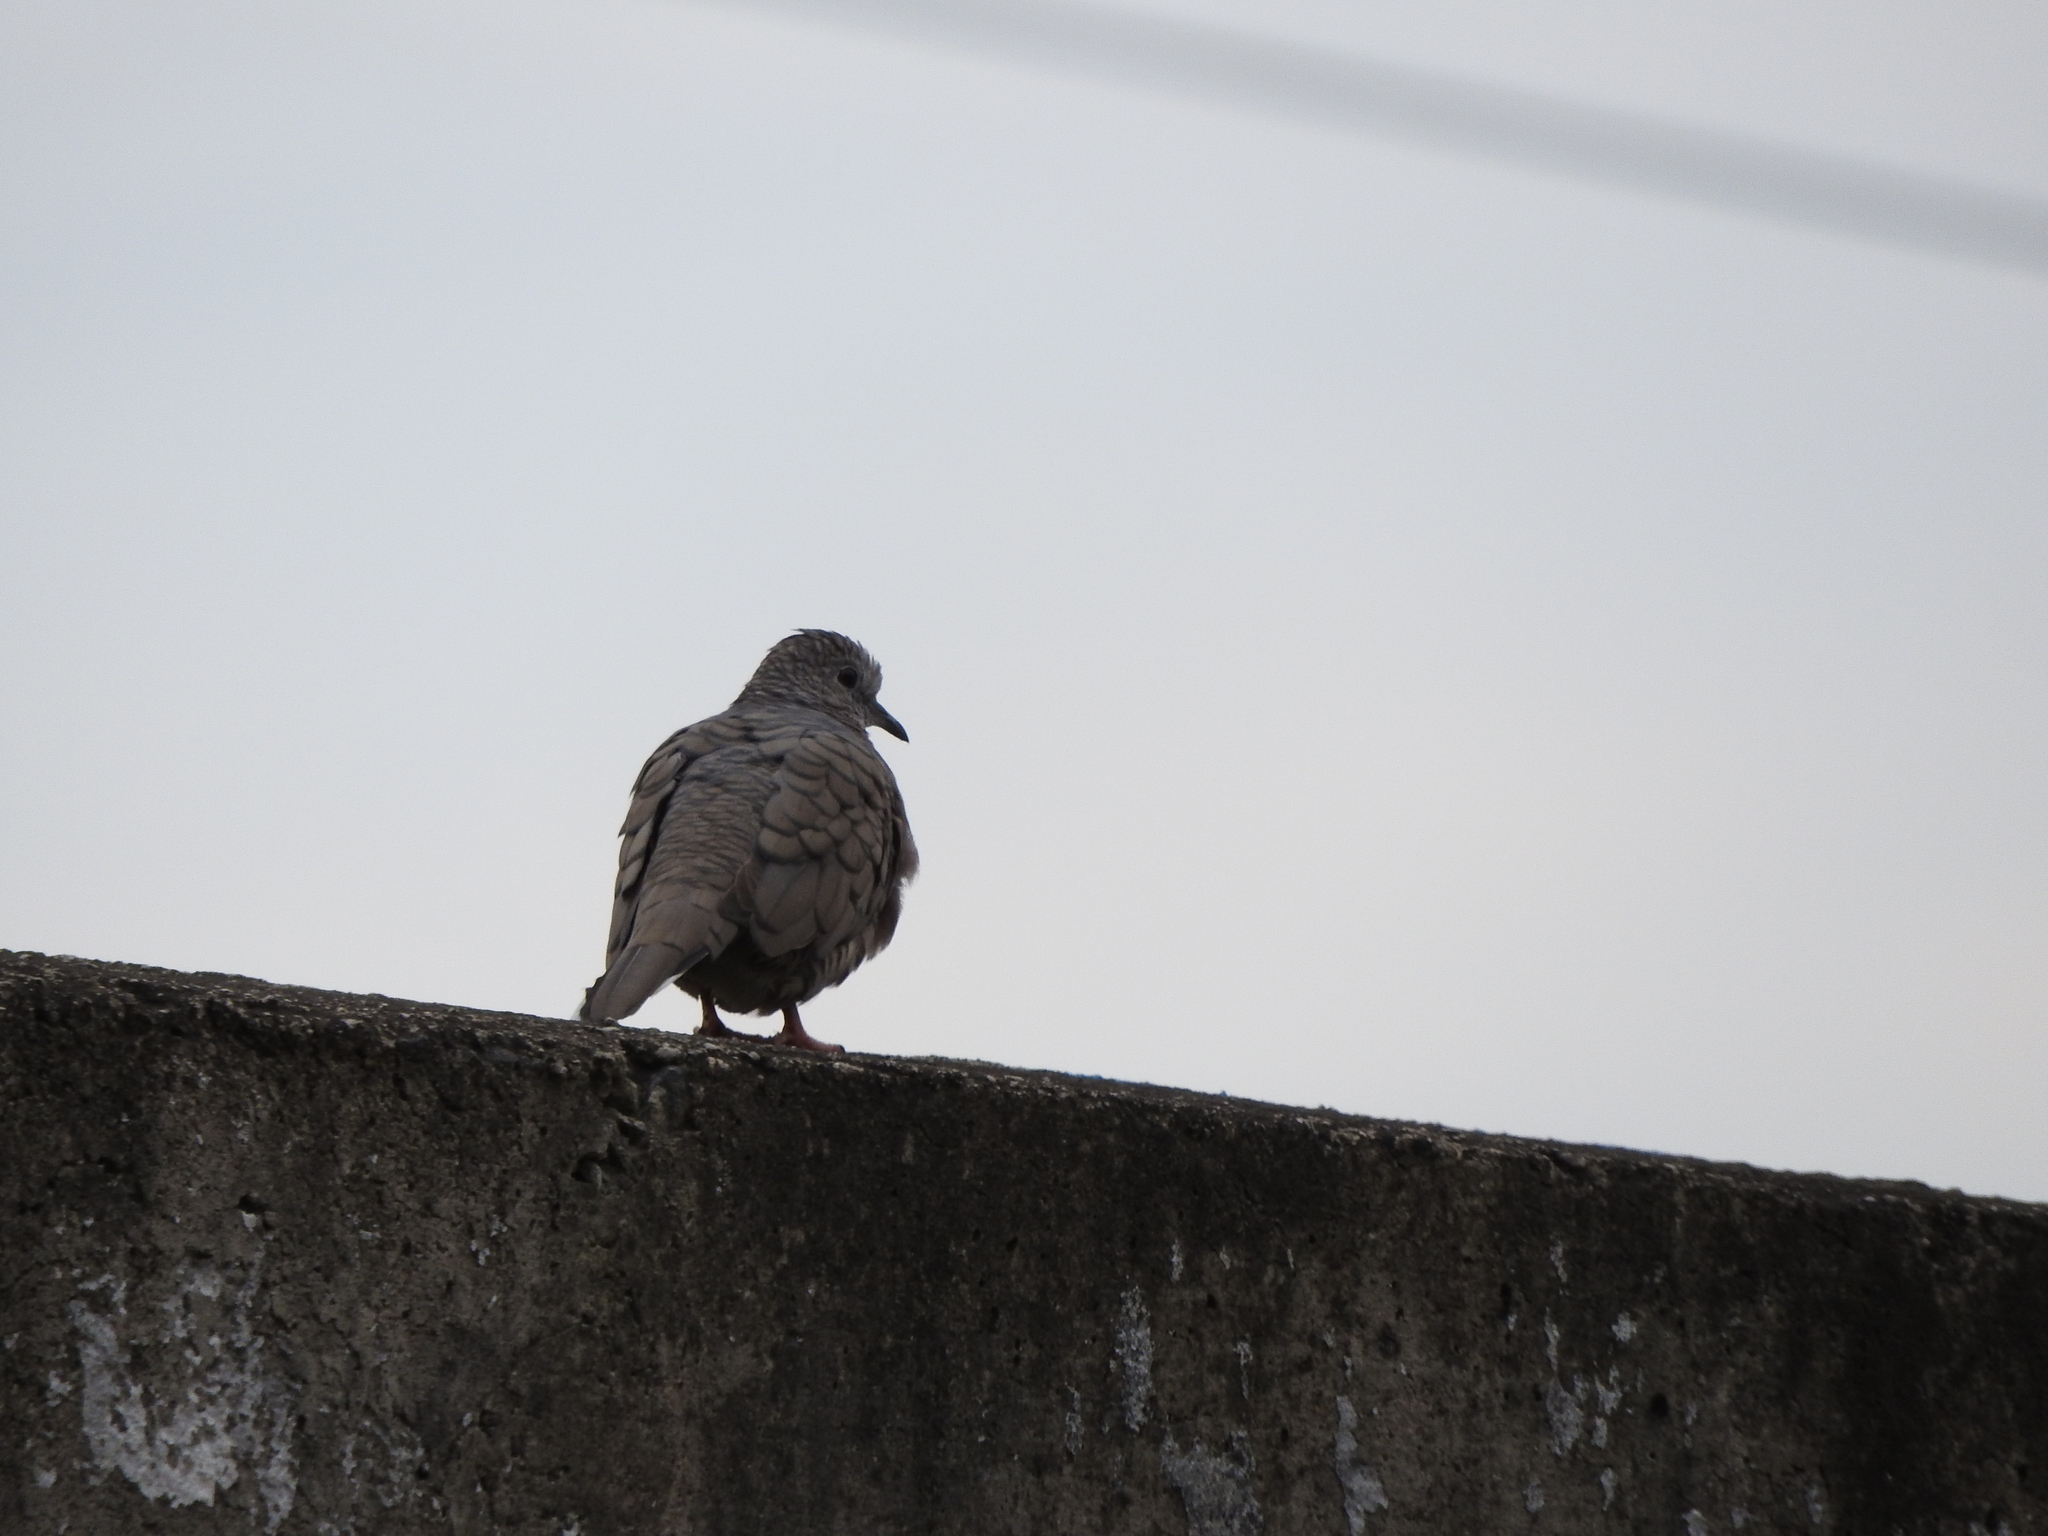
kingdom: Animalia
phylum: Chordata
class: Aves
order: Columbiformes
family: Columbidae
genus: Columbina
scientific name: Columbina inca
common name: Inca dove
